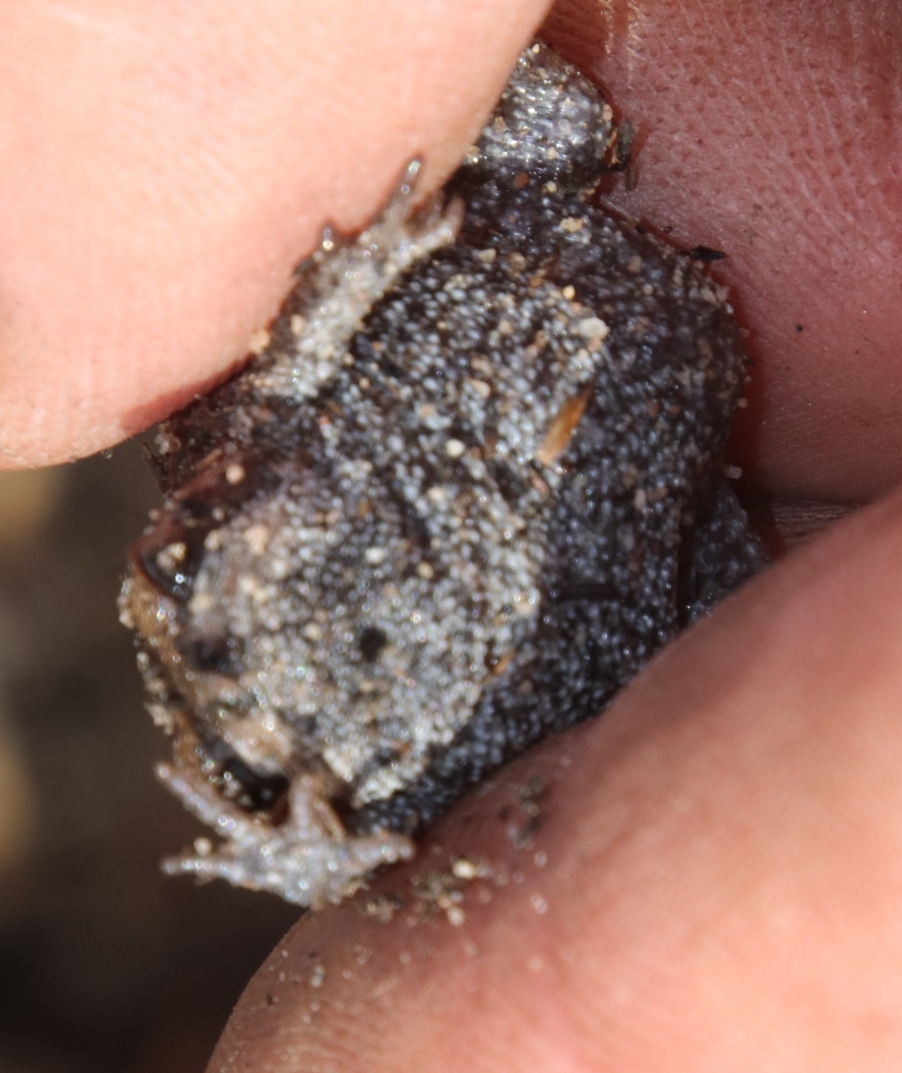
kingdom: Animalia
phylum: Chordata
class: Amphibia
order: Anura
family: Brevicipitidae
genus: Breviceps
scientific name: Breviceps montanus
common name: Mountain rain frog
